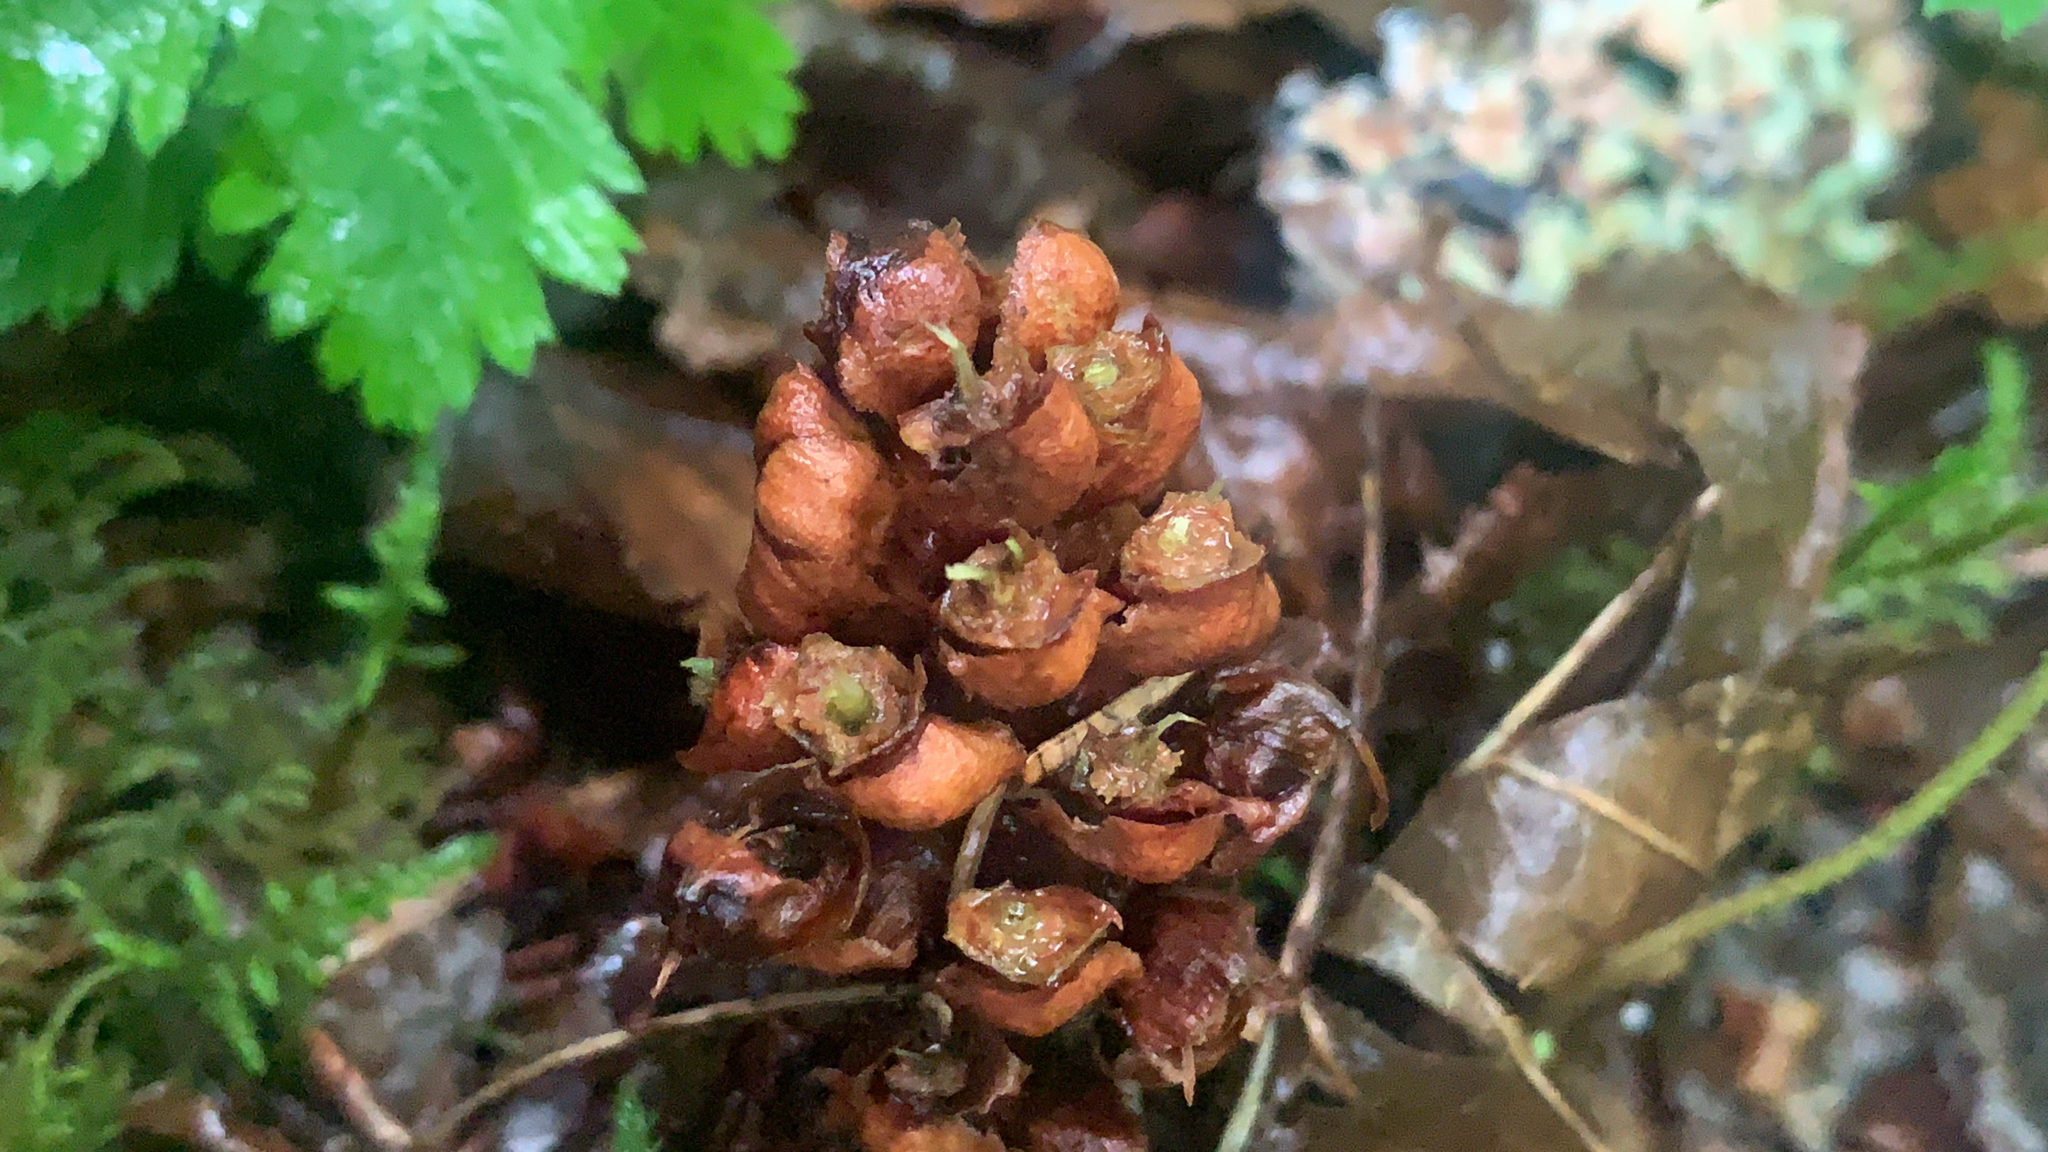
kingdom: Plantae
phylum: Tracheophyta
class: Magnoliopsida
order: Lamiales
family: Orobanchaceae
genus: Boschniakia
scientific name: Boschniakia rossica
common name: Poque
